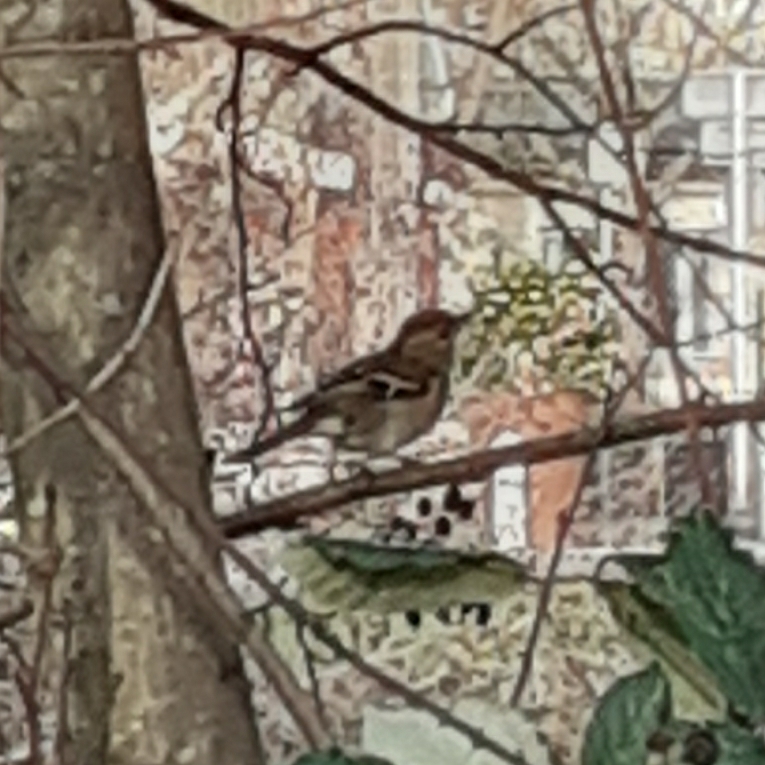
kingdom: Animalia
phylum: Chordata
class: Aves
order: Passeriformes
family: Fringillidae
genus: Fringilla
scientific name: Fringilla coelebs
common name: Common chaffinch
